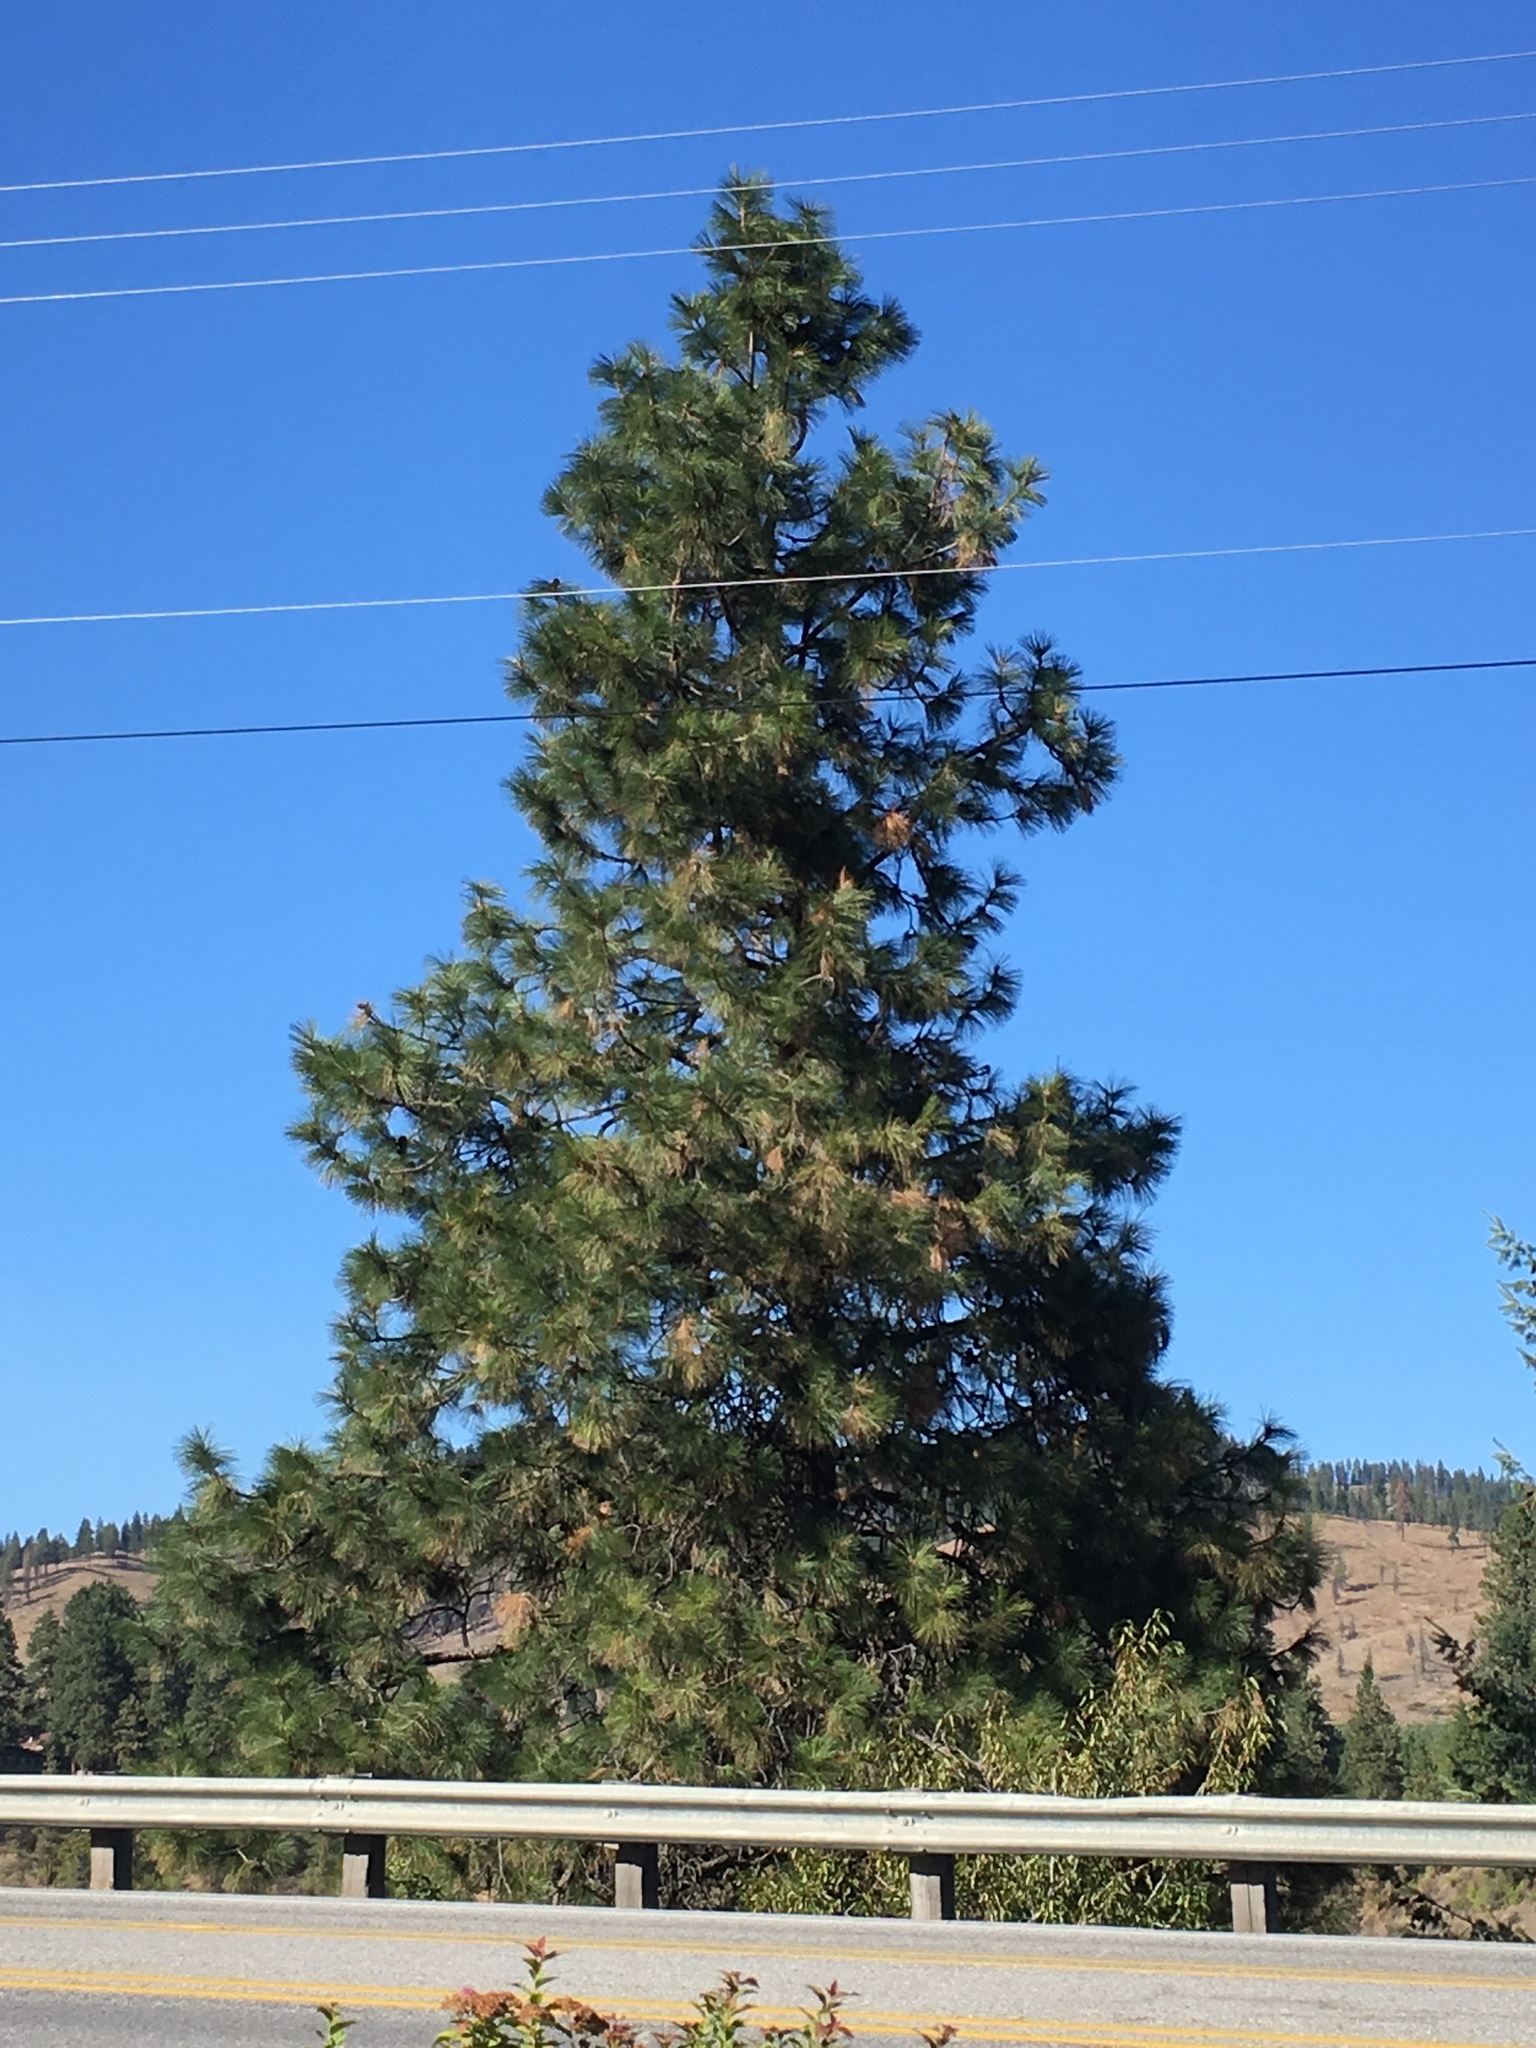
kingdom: Plantae
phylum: Tracheophyta
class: Pinopsida
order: Pinales
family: Pinaceae
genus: Pinus
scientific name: Pinus ponderosa
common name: Western yellow-pine
